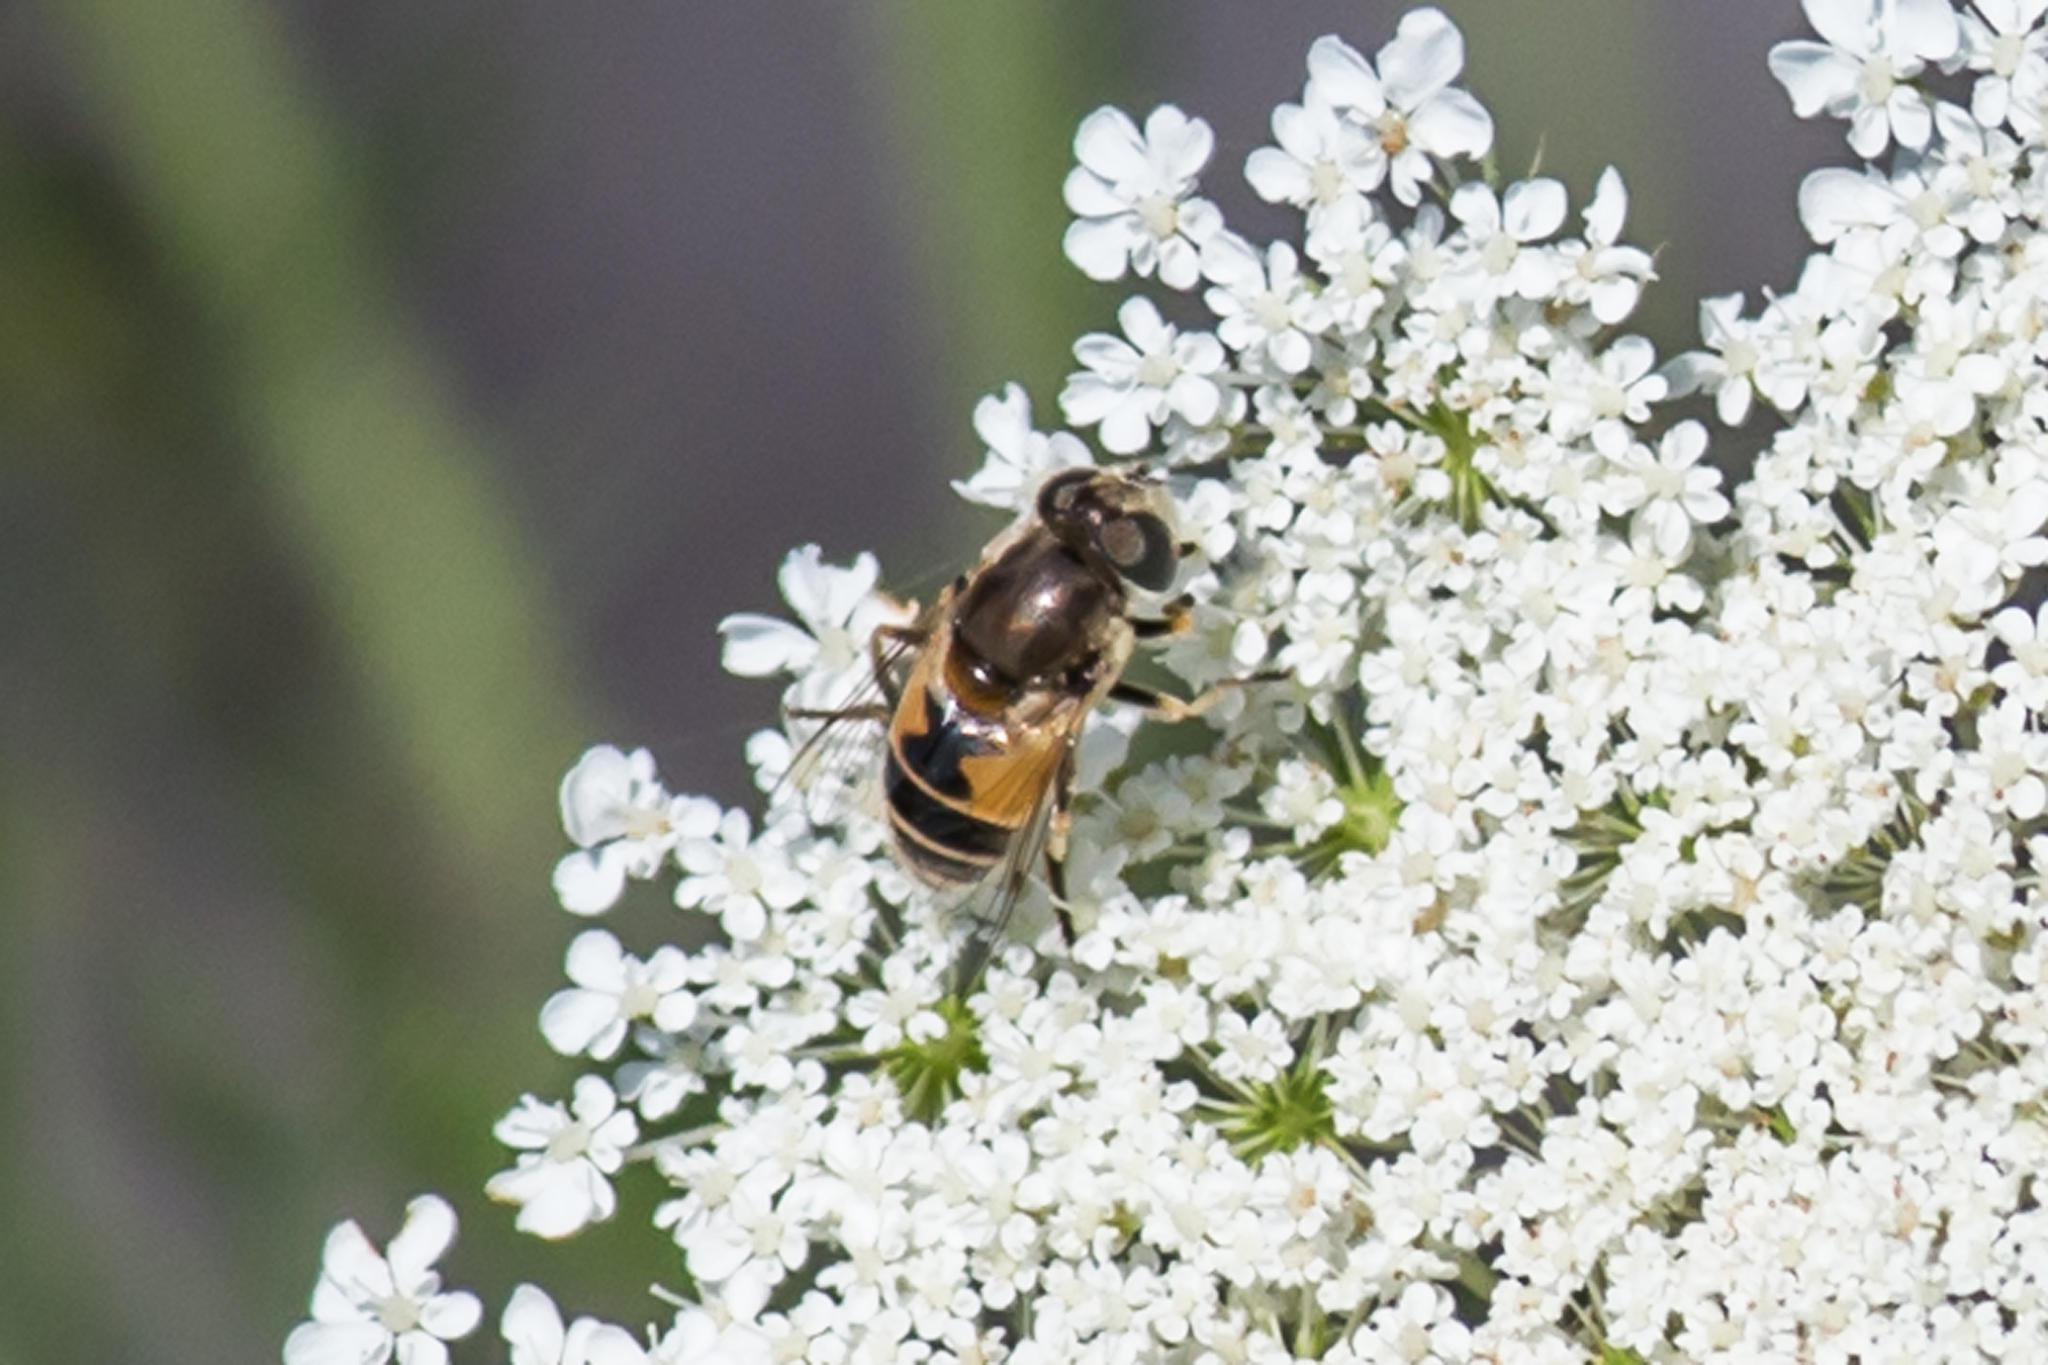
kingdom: Animalia
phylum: Arthropoda
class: Insecta
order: Diptera
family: Syrphidae
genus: Eristalis
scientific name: Eristalis arbustorum
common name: Hover fly
